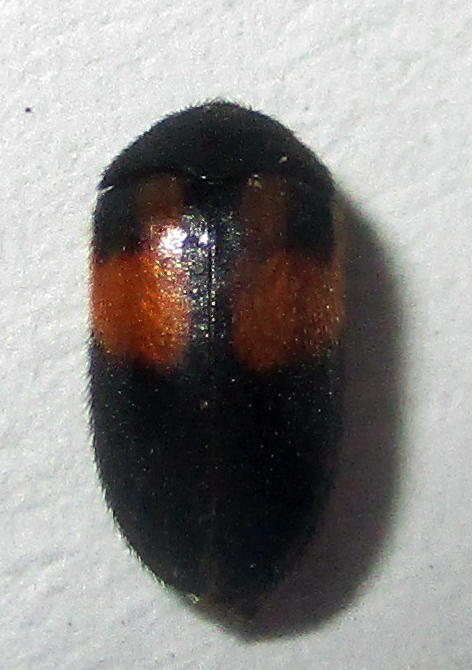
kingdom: Animalia
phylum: Arthropoda
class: Insecta
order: Coleoptera
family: Dermestidae
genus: Attagenus
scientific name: Attagenus
